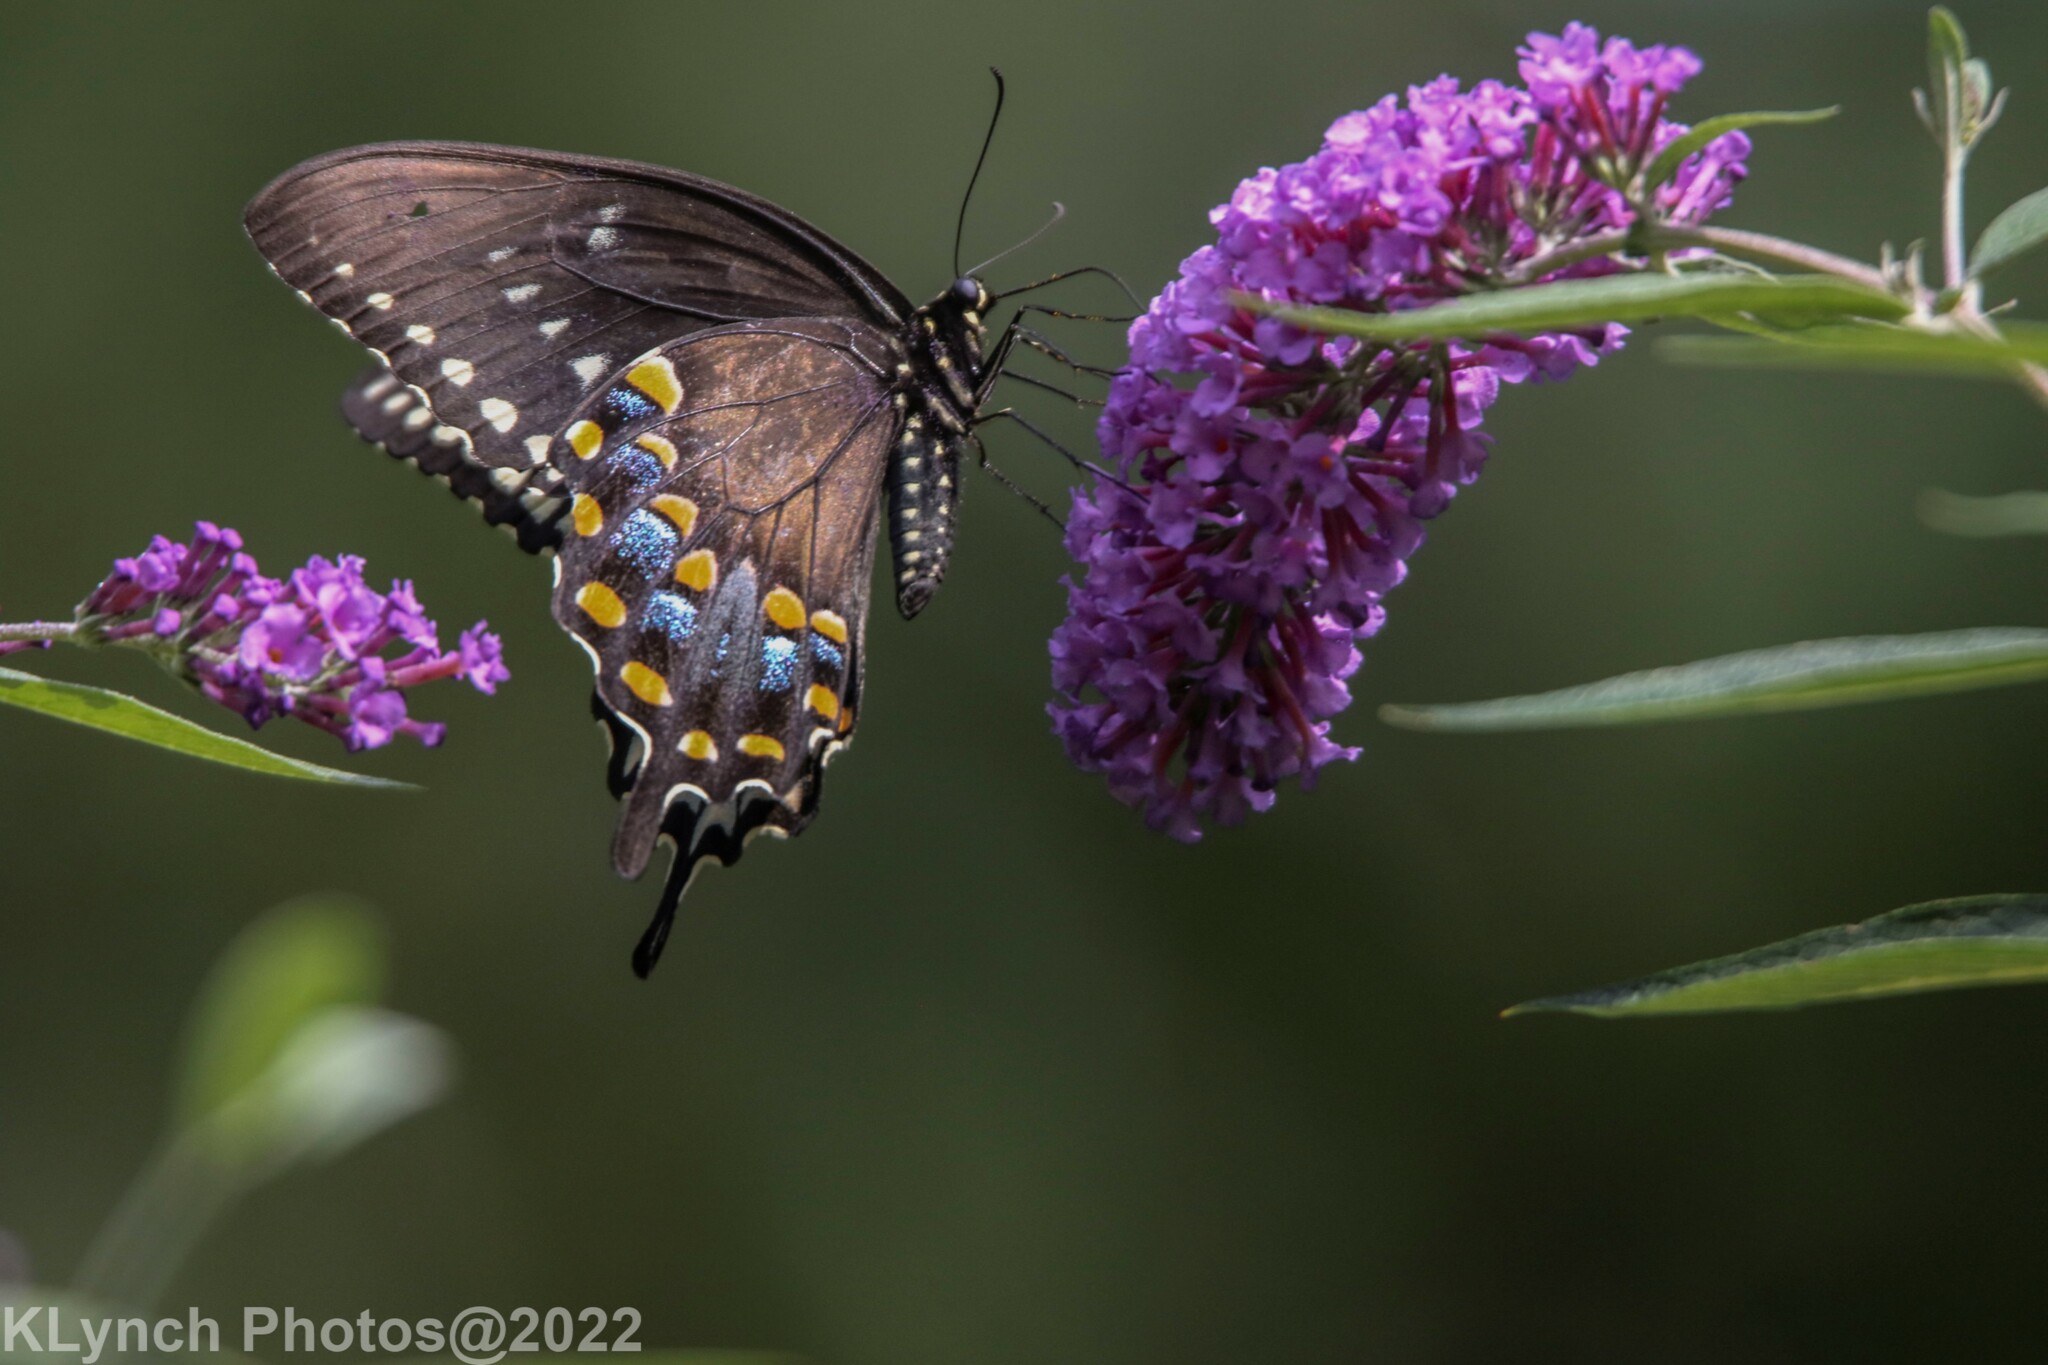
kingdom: Animalia
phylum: Arthropoda
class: Insecta
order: Lepidoptera
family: Papilionidae
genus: Papilio
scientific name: Papilio troilus
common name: Spicebush swallowtail
